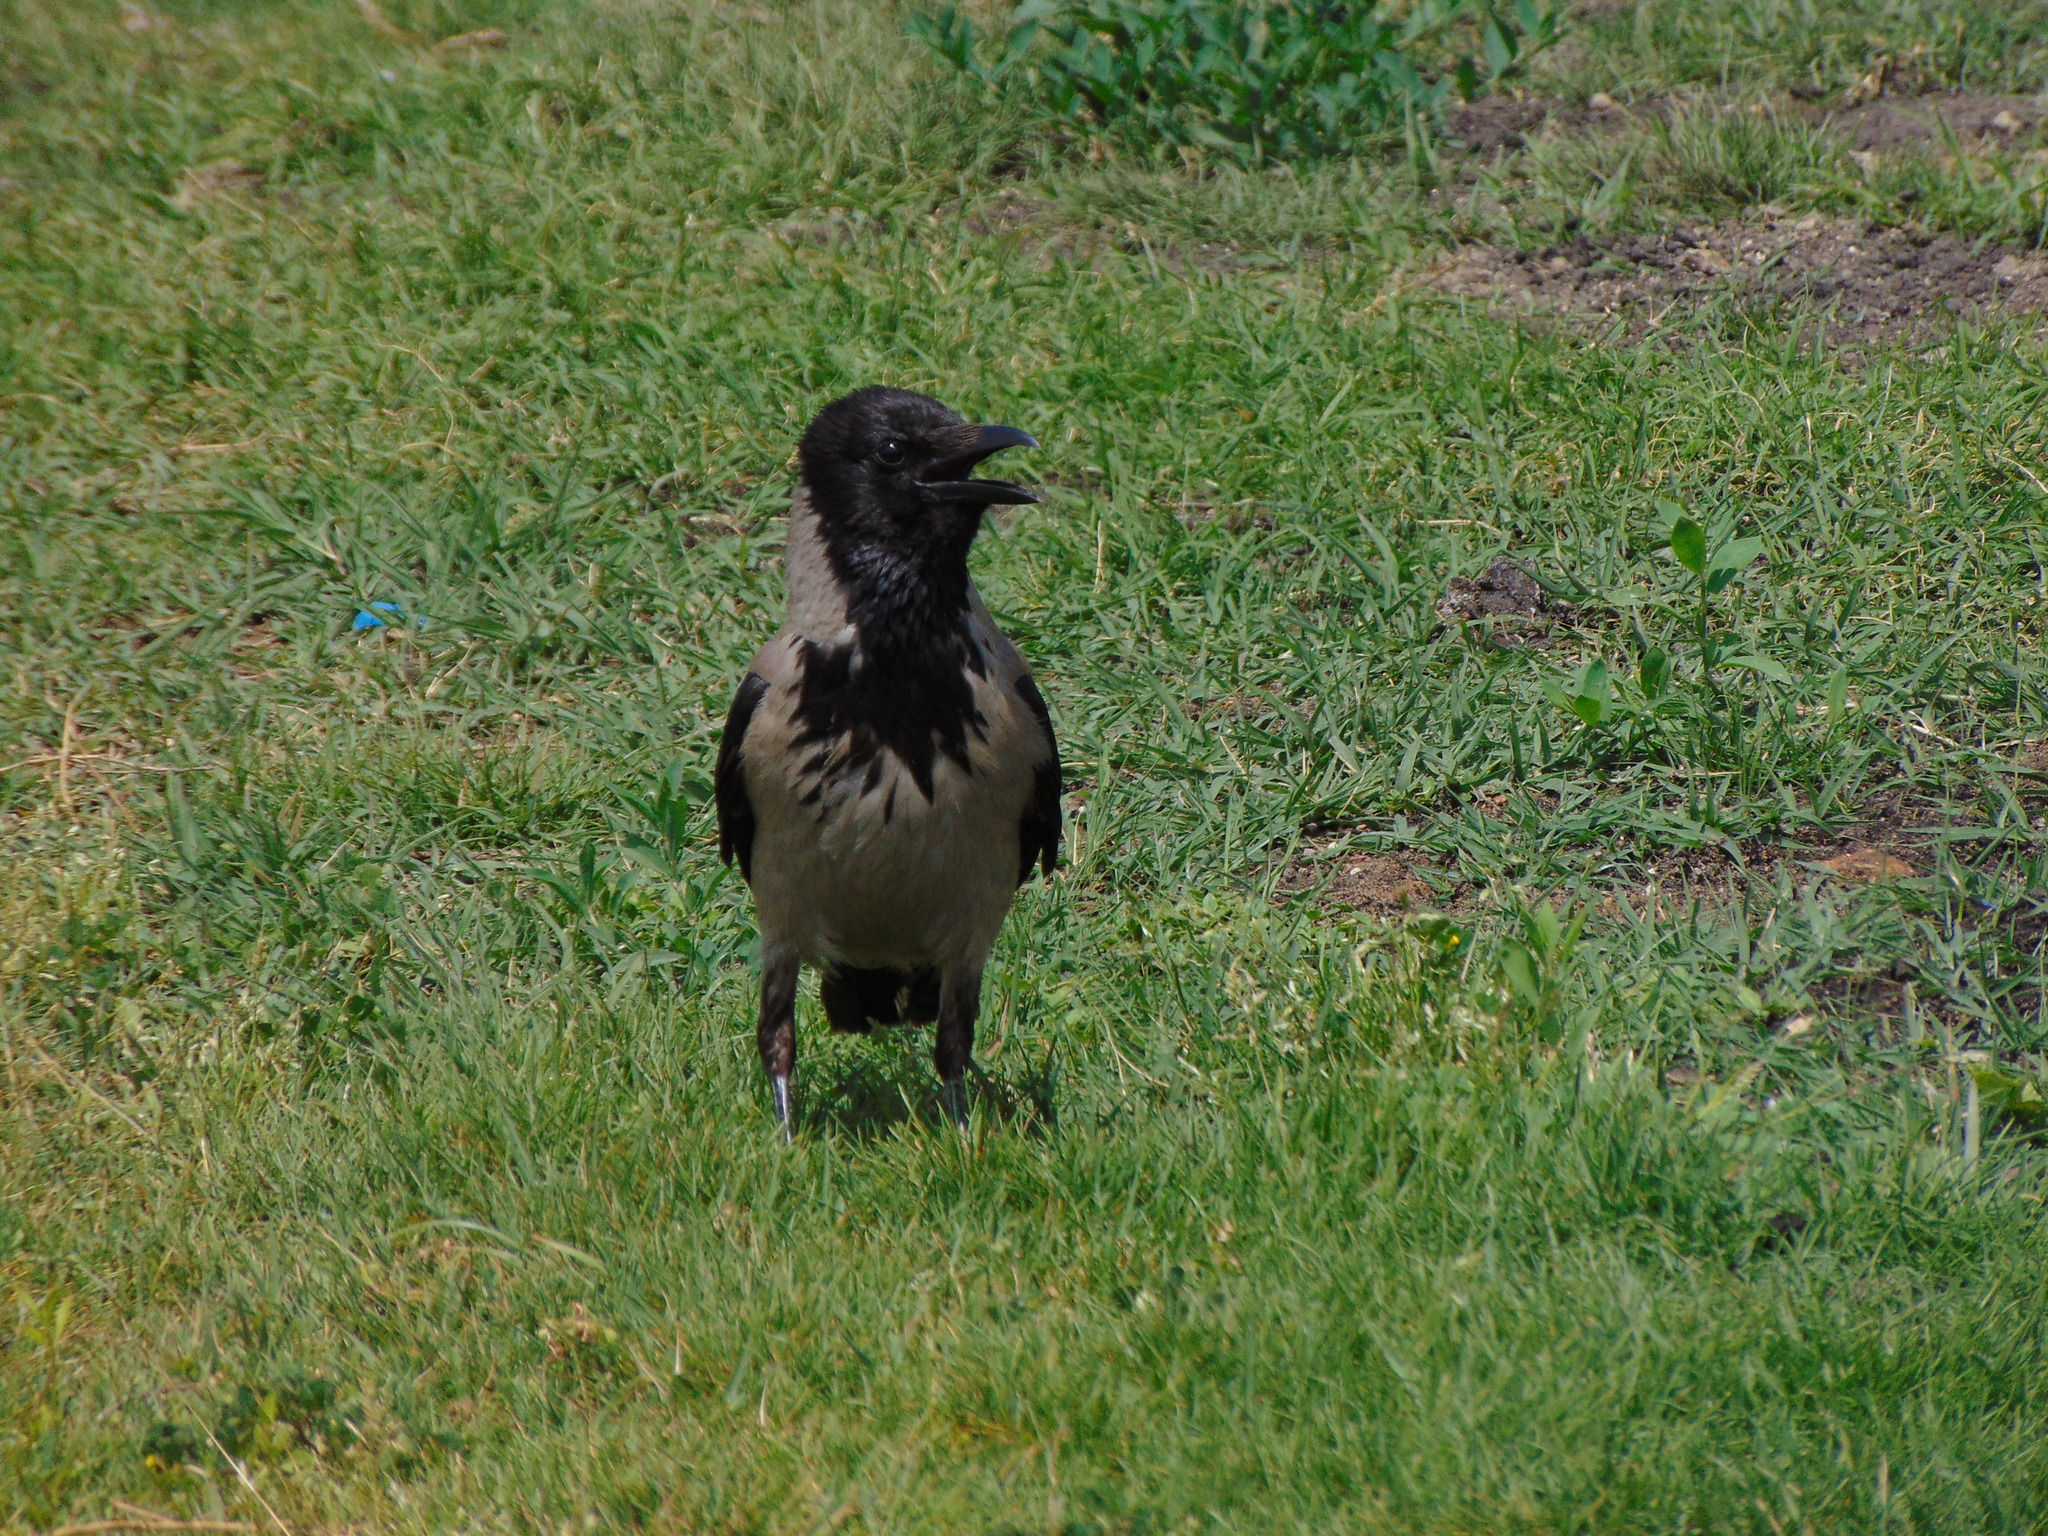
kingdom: Animalia
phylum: Chordata
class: Aves
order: Passeriformes
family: Corvidae
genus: Corvus
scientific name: Corvus cornix
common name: Hooded crow
